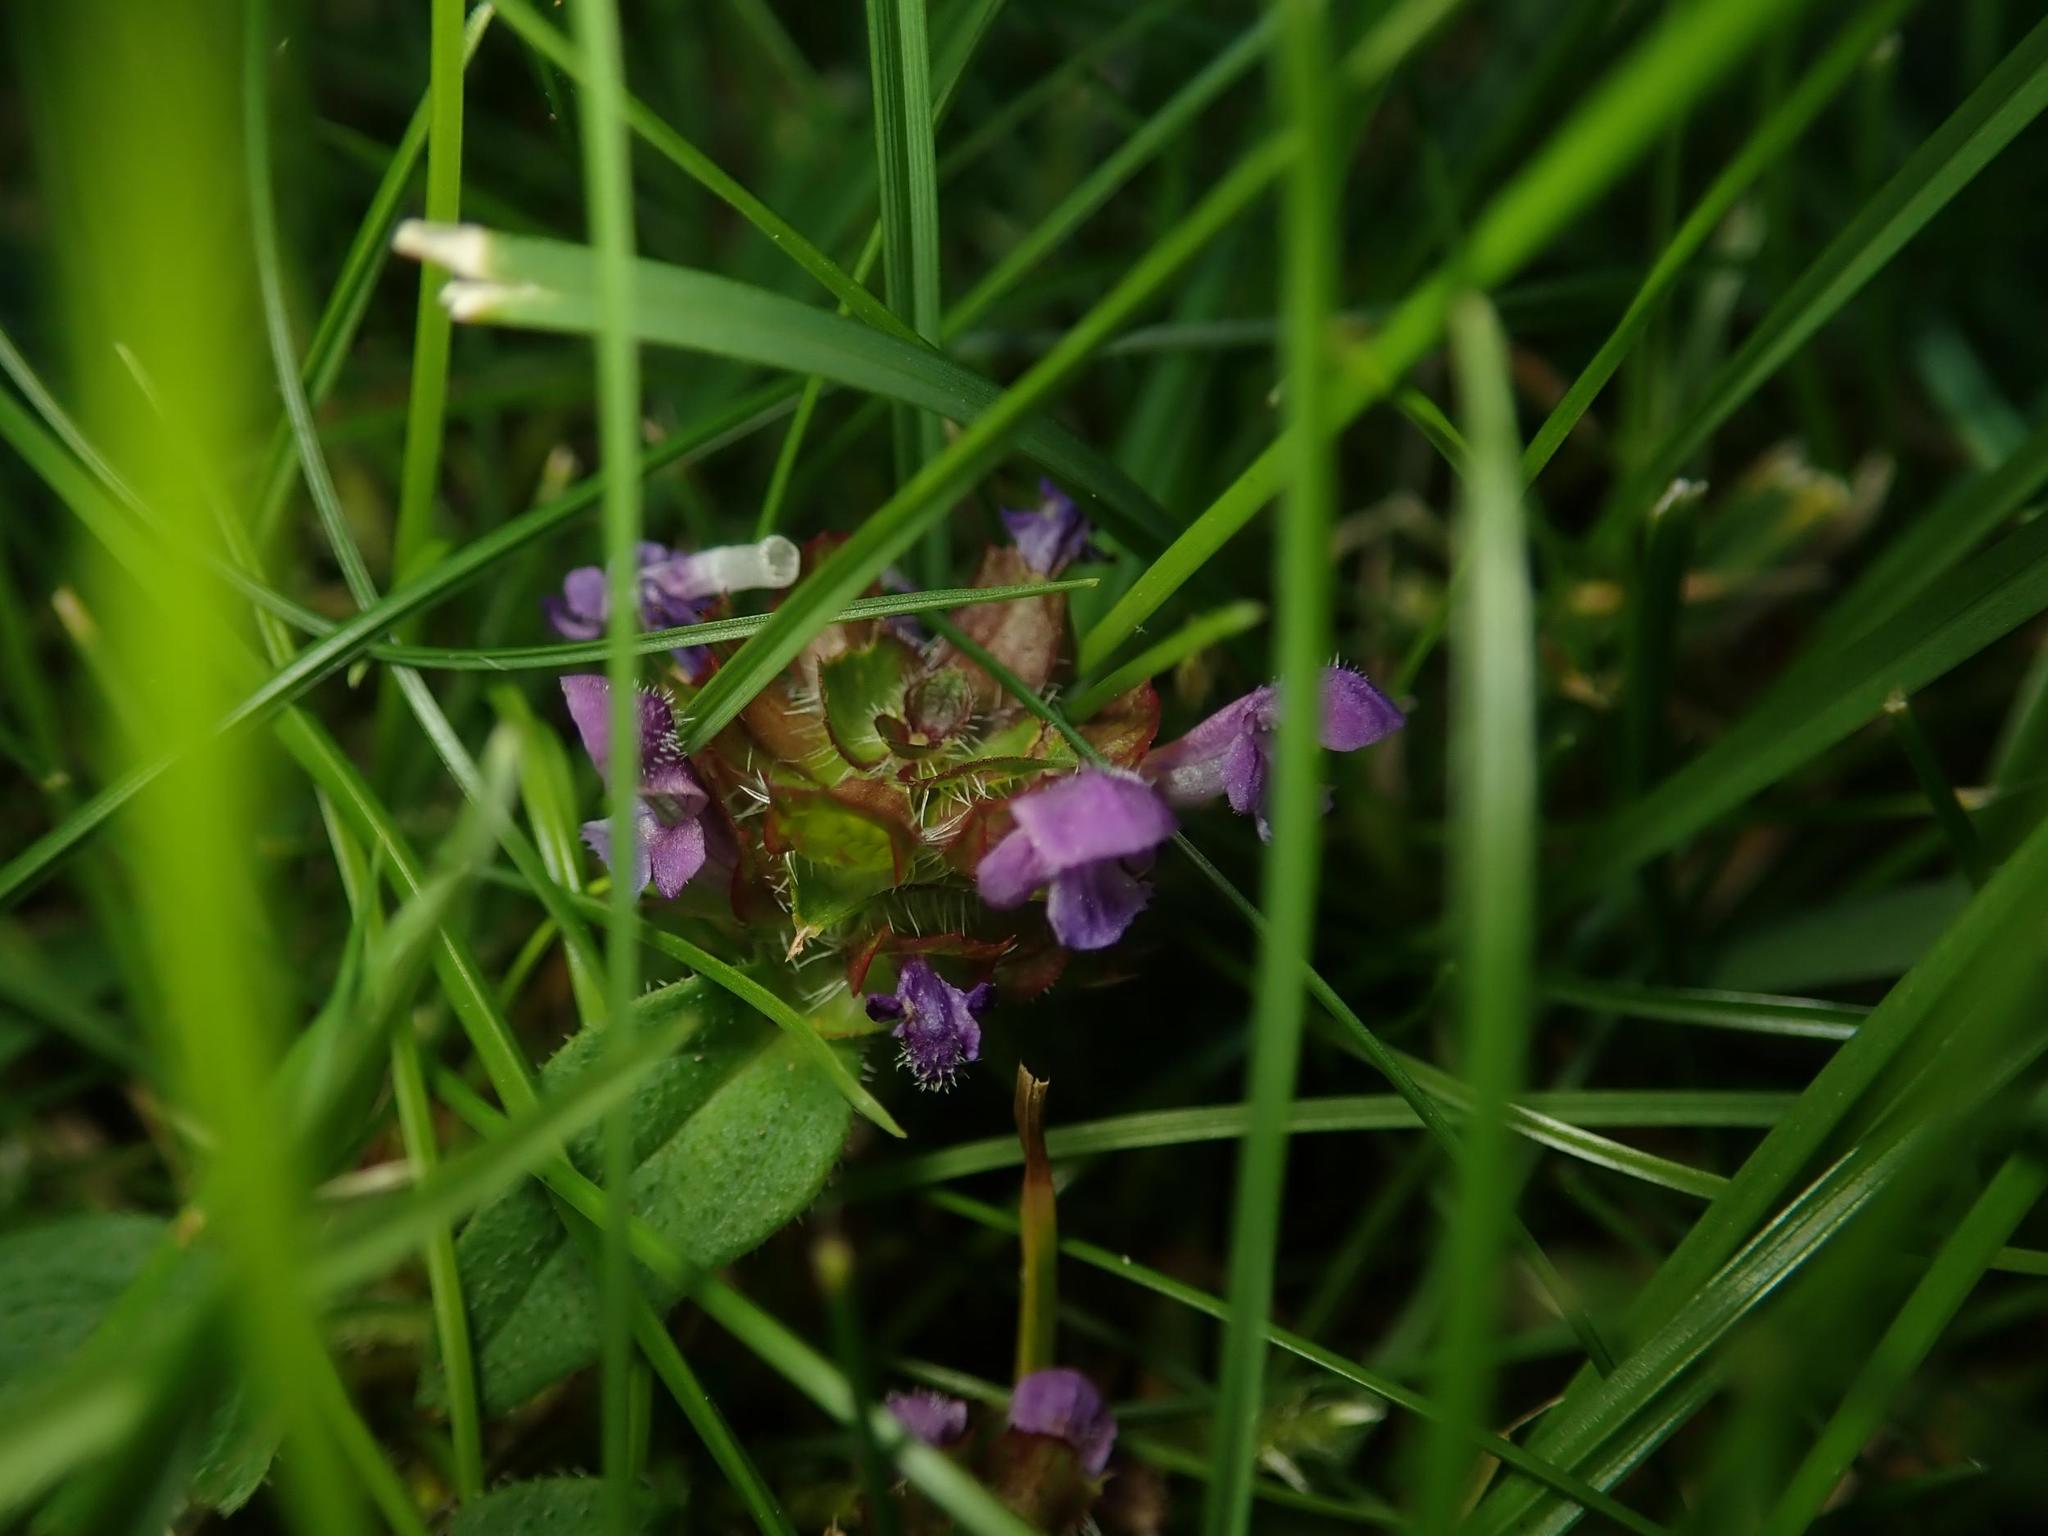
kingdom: Plantae
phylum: Tracheophyta
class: Magnoliopsida
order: Lamiales
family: Lamiaceae
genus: Prunella
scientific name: Prunella vulgaris
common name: Heal-all
